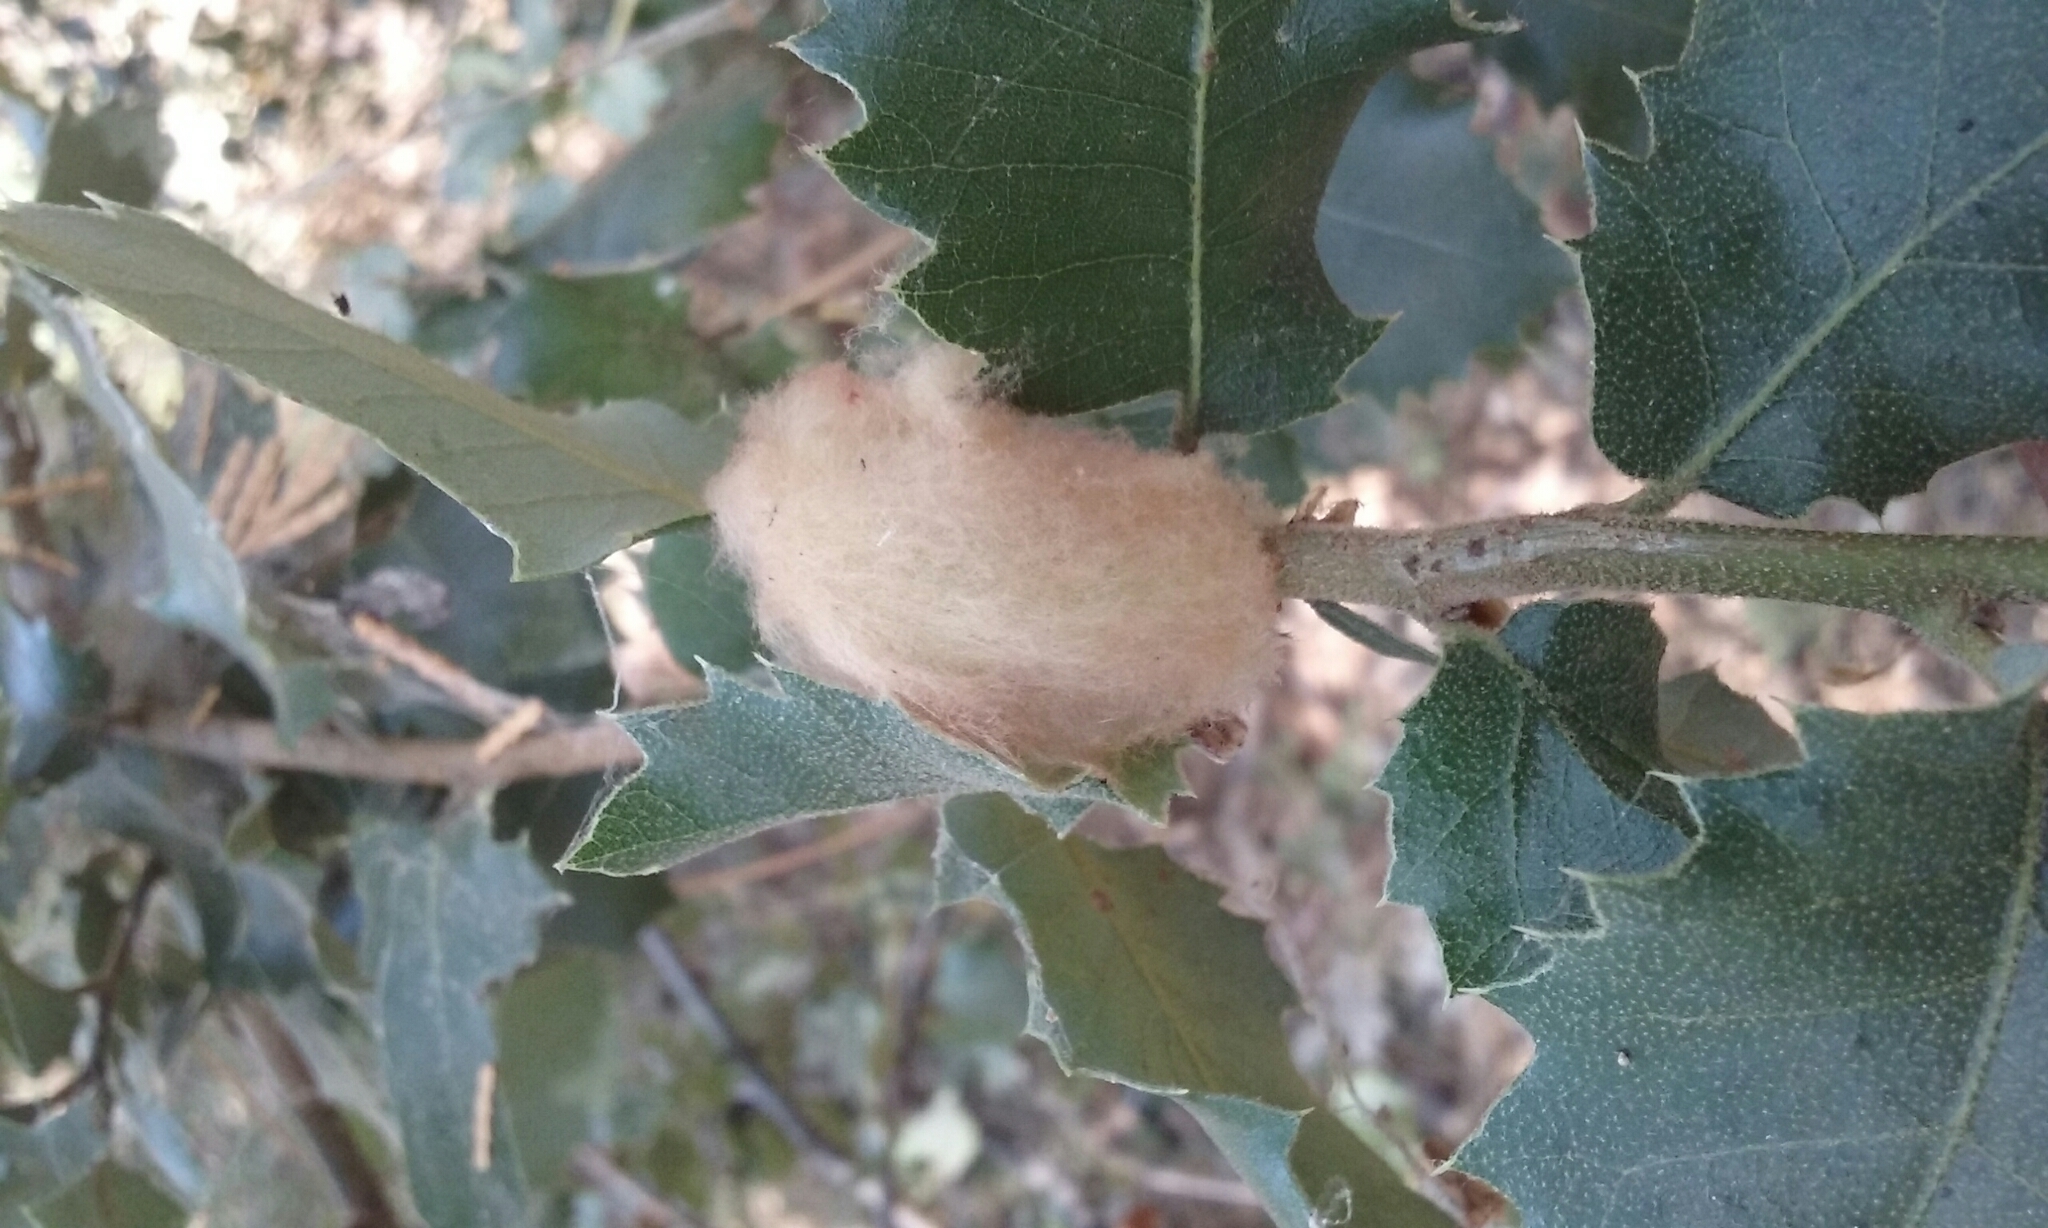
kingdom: Animalia
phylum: Arthropoda
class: Insecta
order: Hymenoptera
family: Cynipidae
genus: Heteroecus
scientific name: Heteroecus
